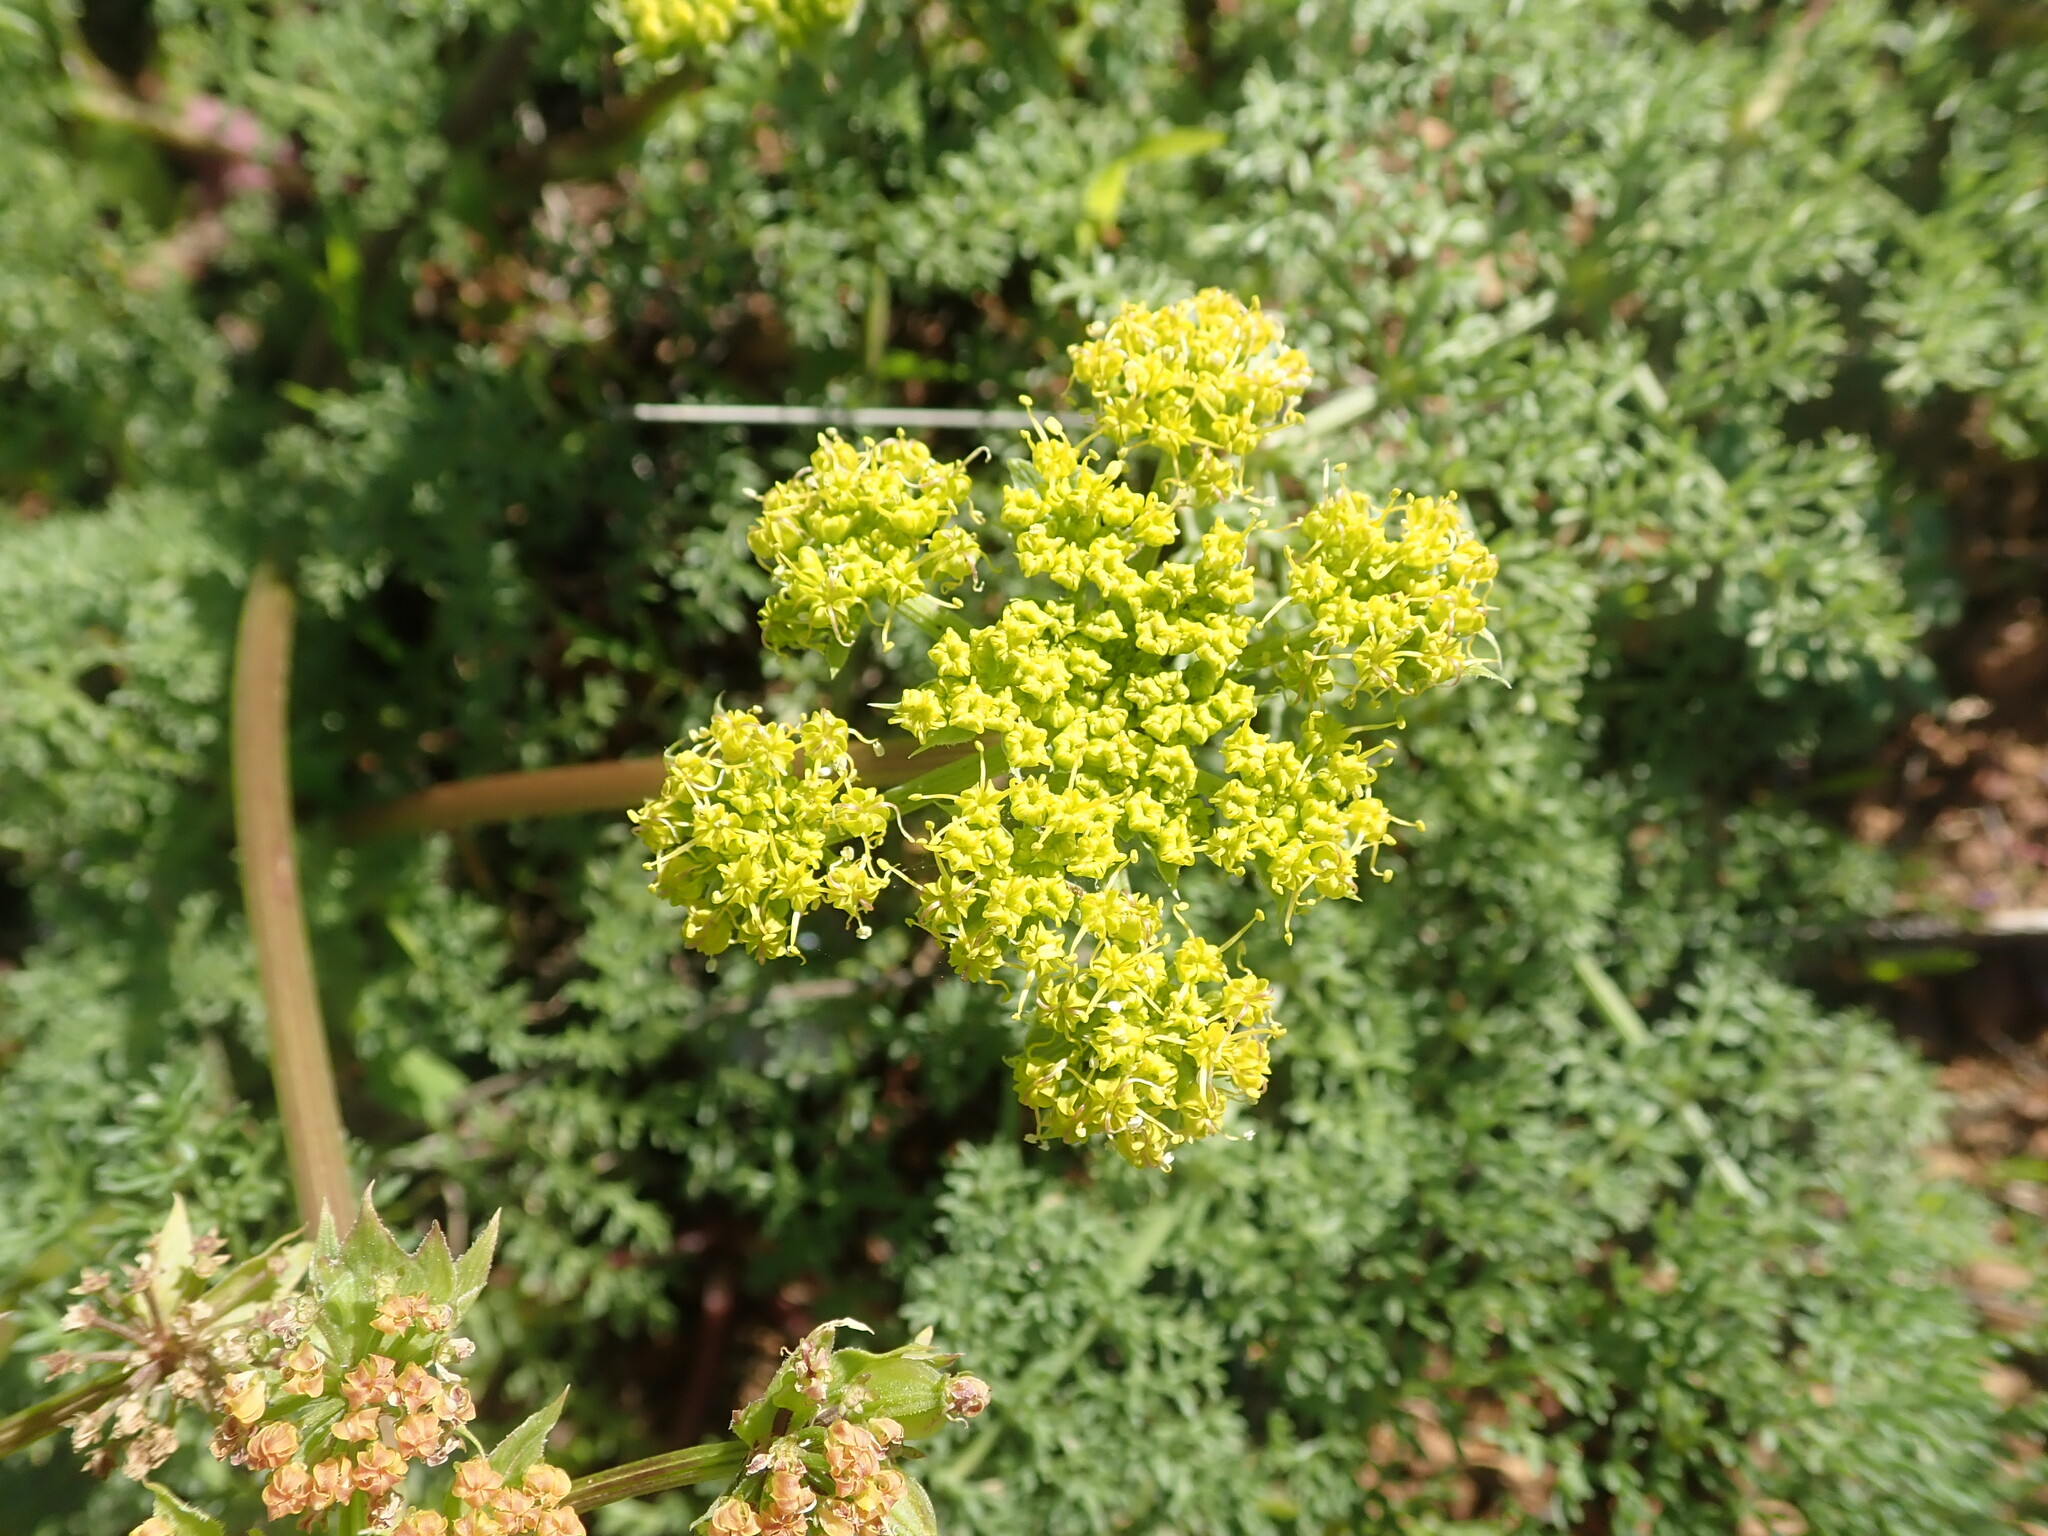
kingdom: Plantae
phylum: Tracheophyta
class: Magnoliopsida
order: Apiales
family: Apiaceae
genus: Lomatium
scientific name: Lomatium dasycarpum
